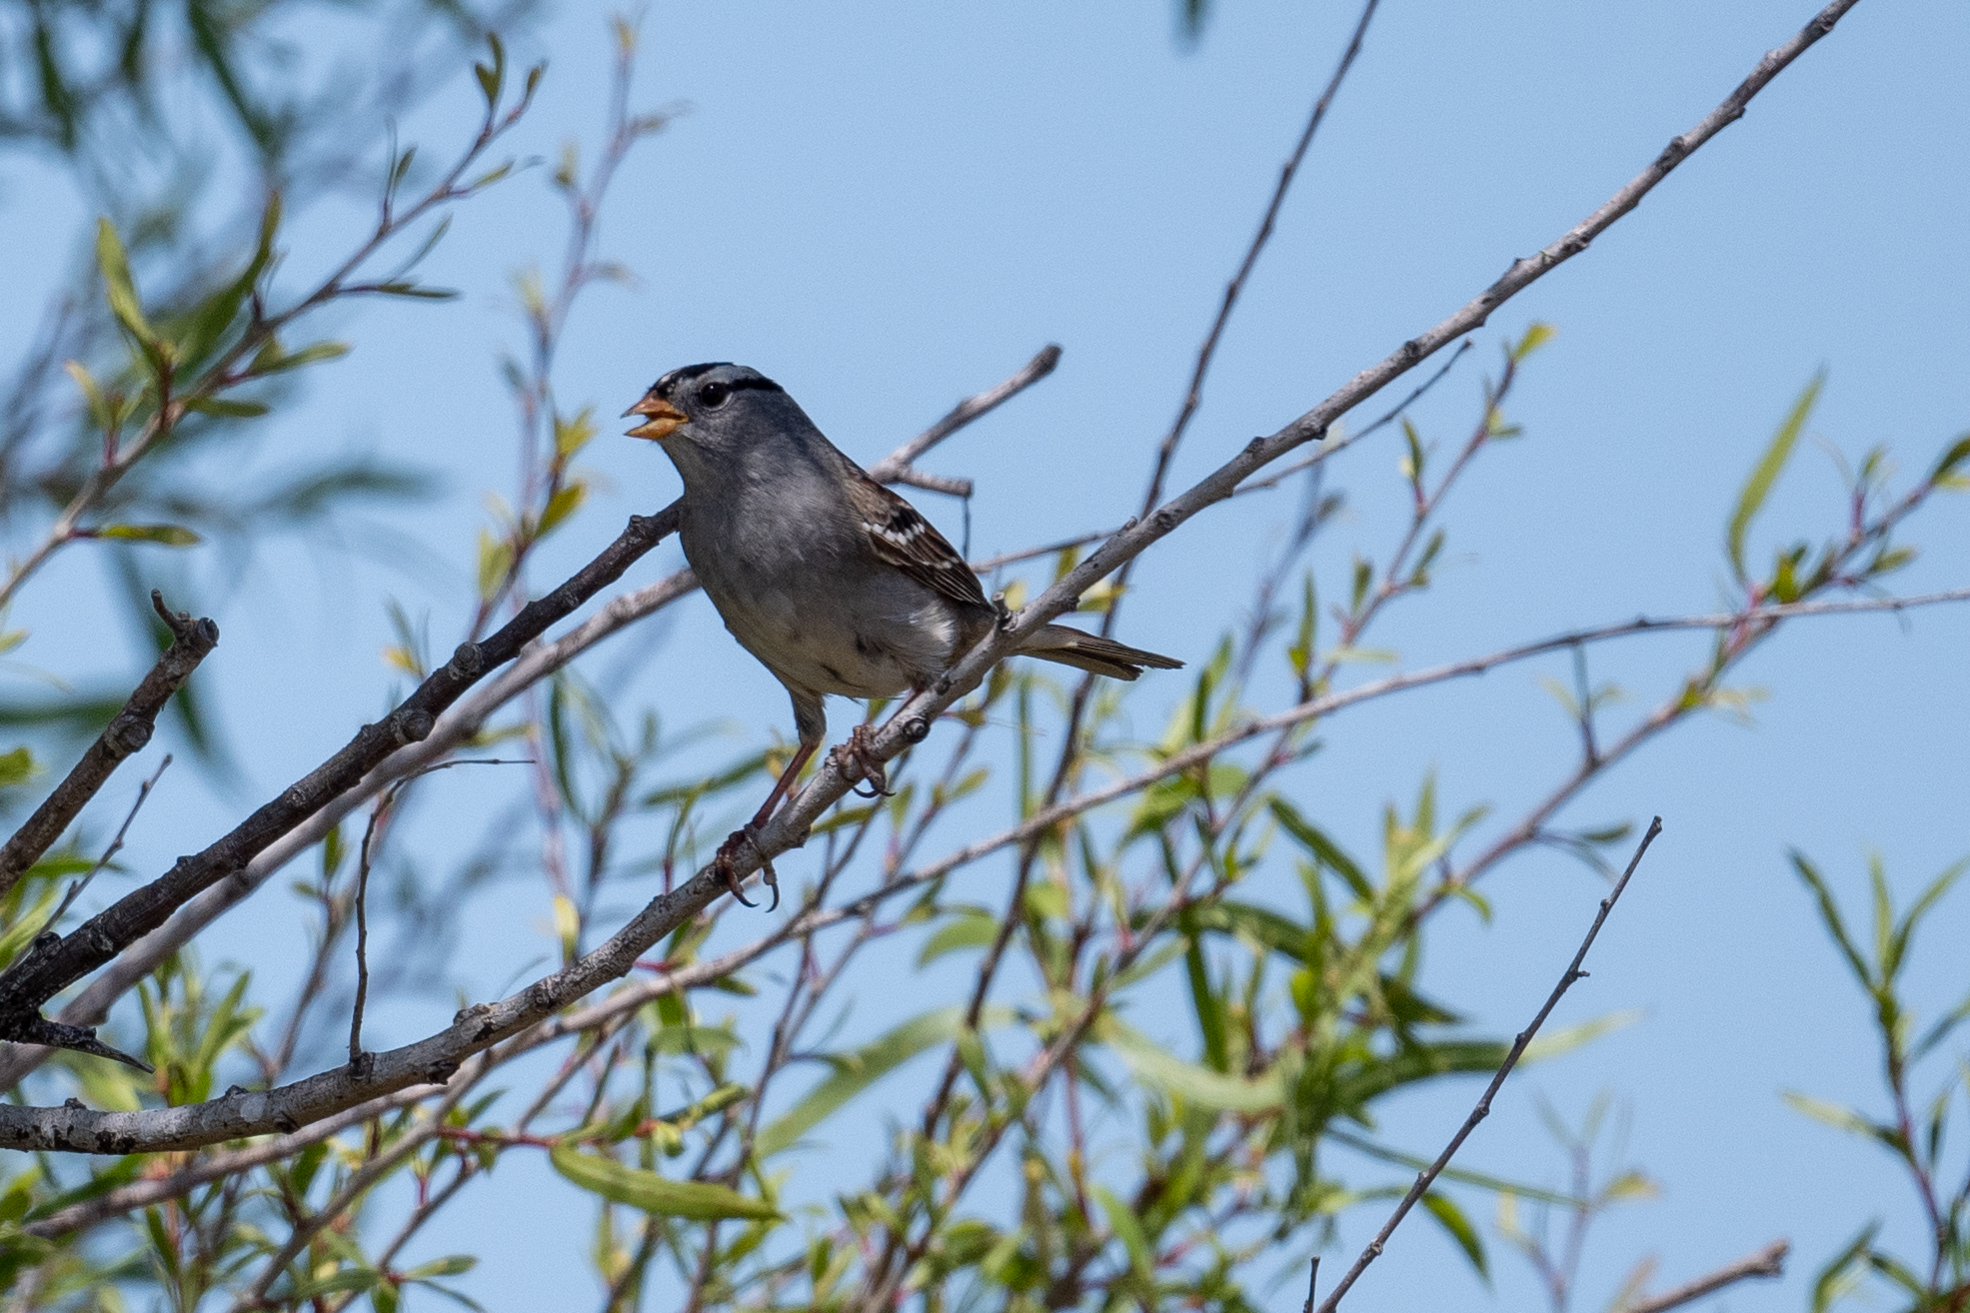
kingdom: Animalia
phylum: Chordata
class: Aves
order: Passeriformes
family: Passerellidae
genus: Zonotrichia
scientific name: Zonotrichia leucophrys
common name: White-crowned sparrow
